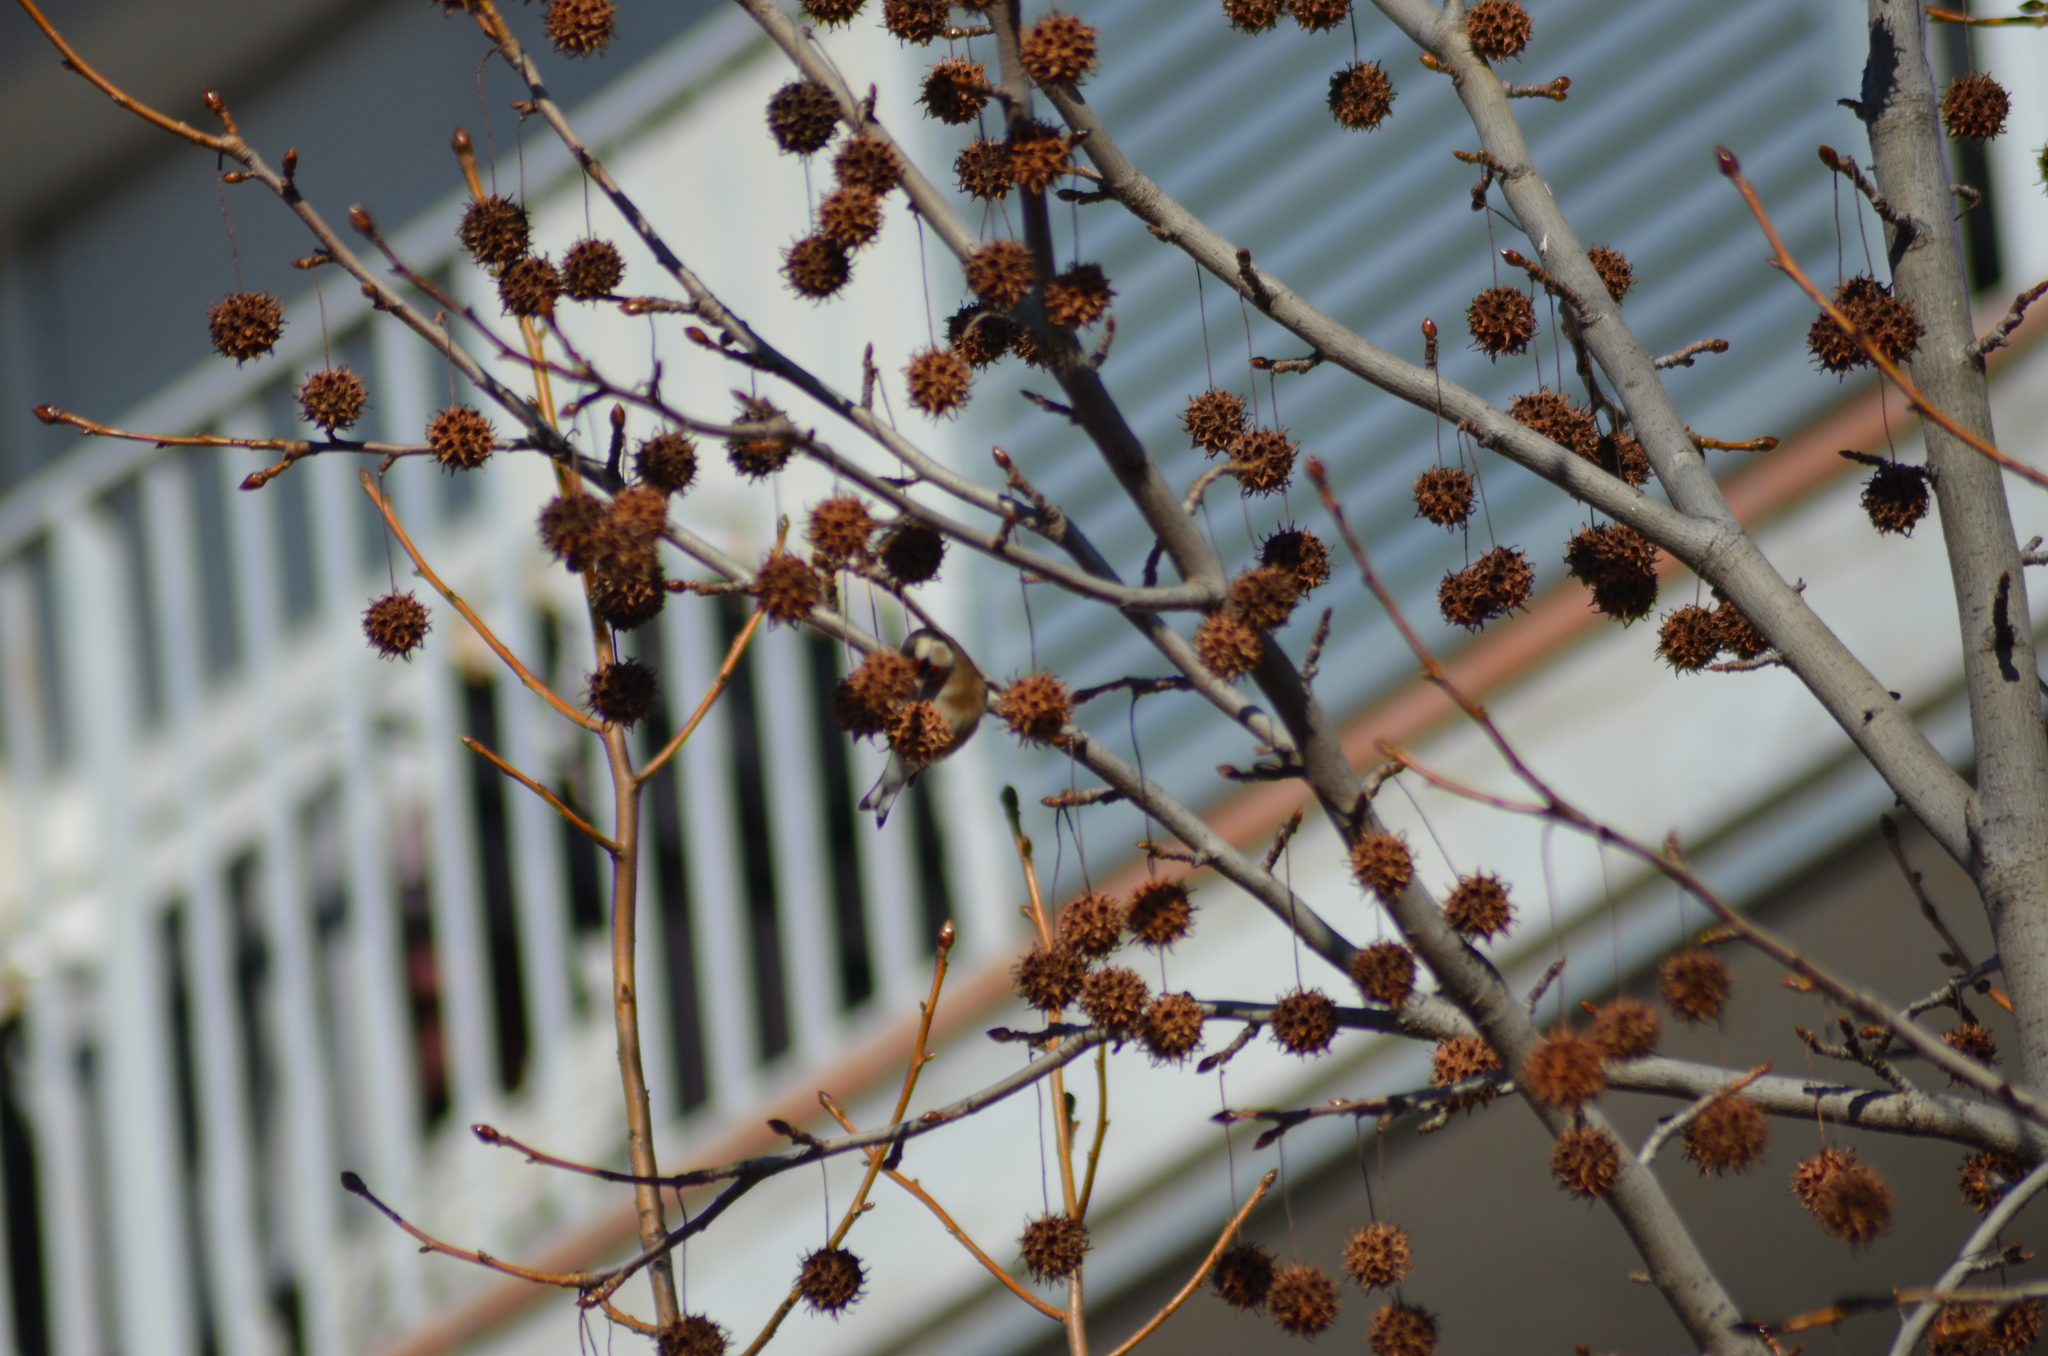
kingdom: Animalia
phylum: Chordata
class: Aves
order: Passeriformes
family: Fringillidae
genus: Carduelis
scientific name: Carduelis carduelis
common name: European goldfinch
